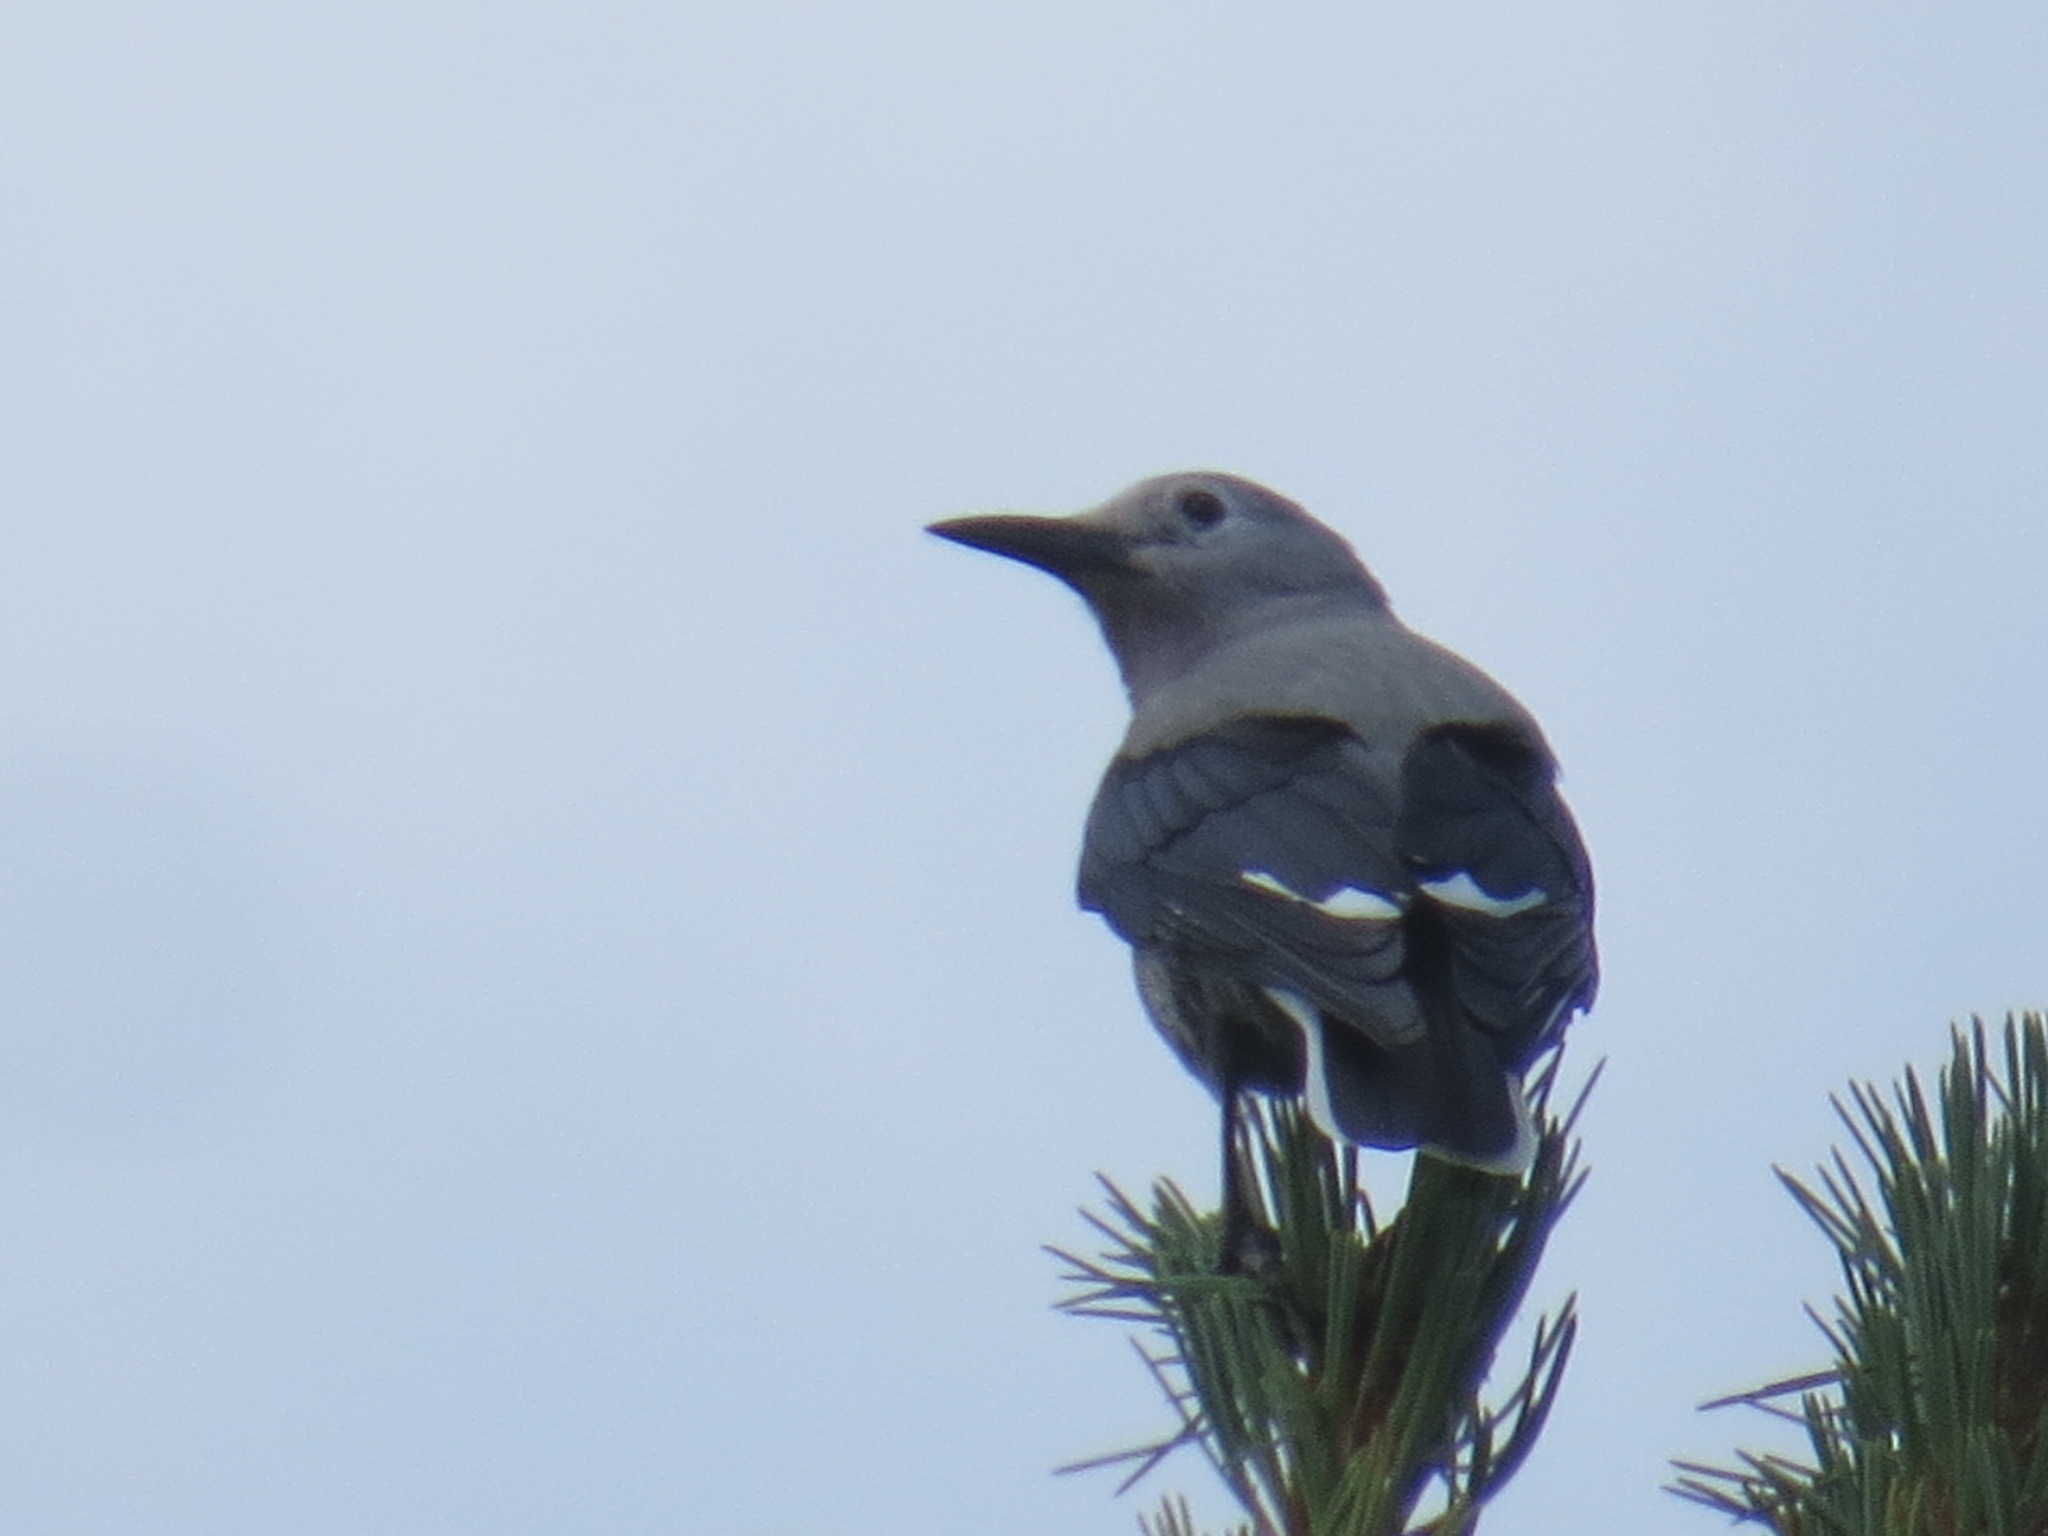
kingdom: Animalia
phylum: Chordata
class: Aves
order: Passeriformes
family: Corvidae
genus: Nucifraga
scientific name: Nucifraga columbiana
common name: Clark's nutcracker
